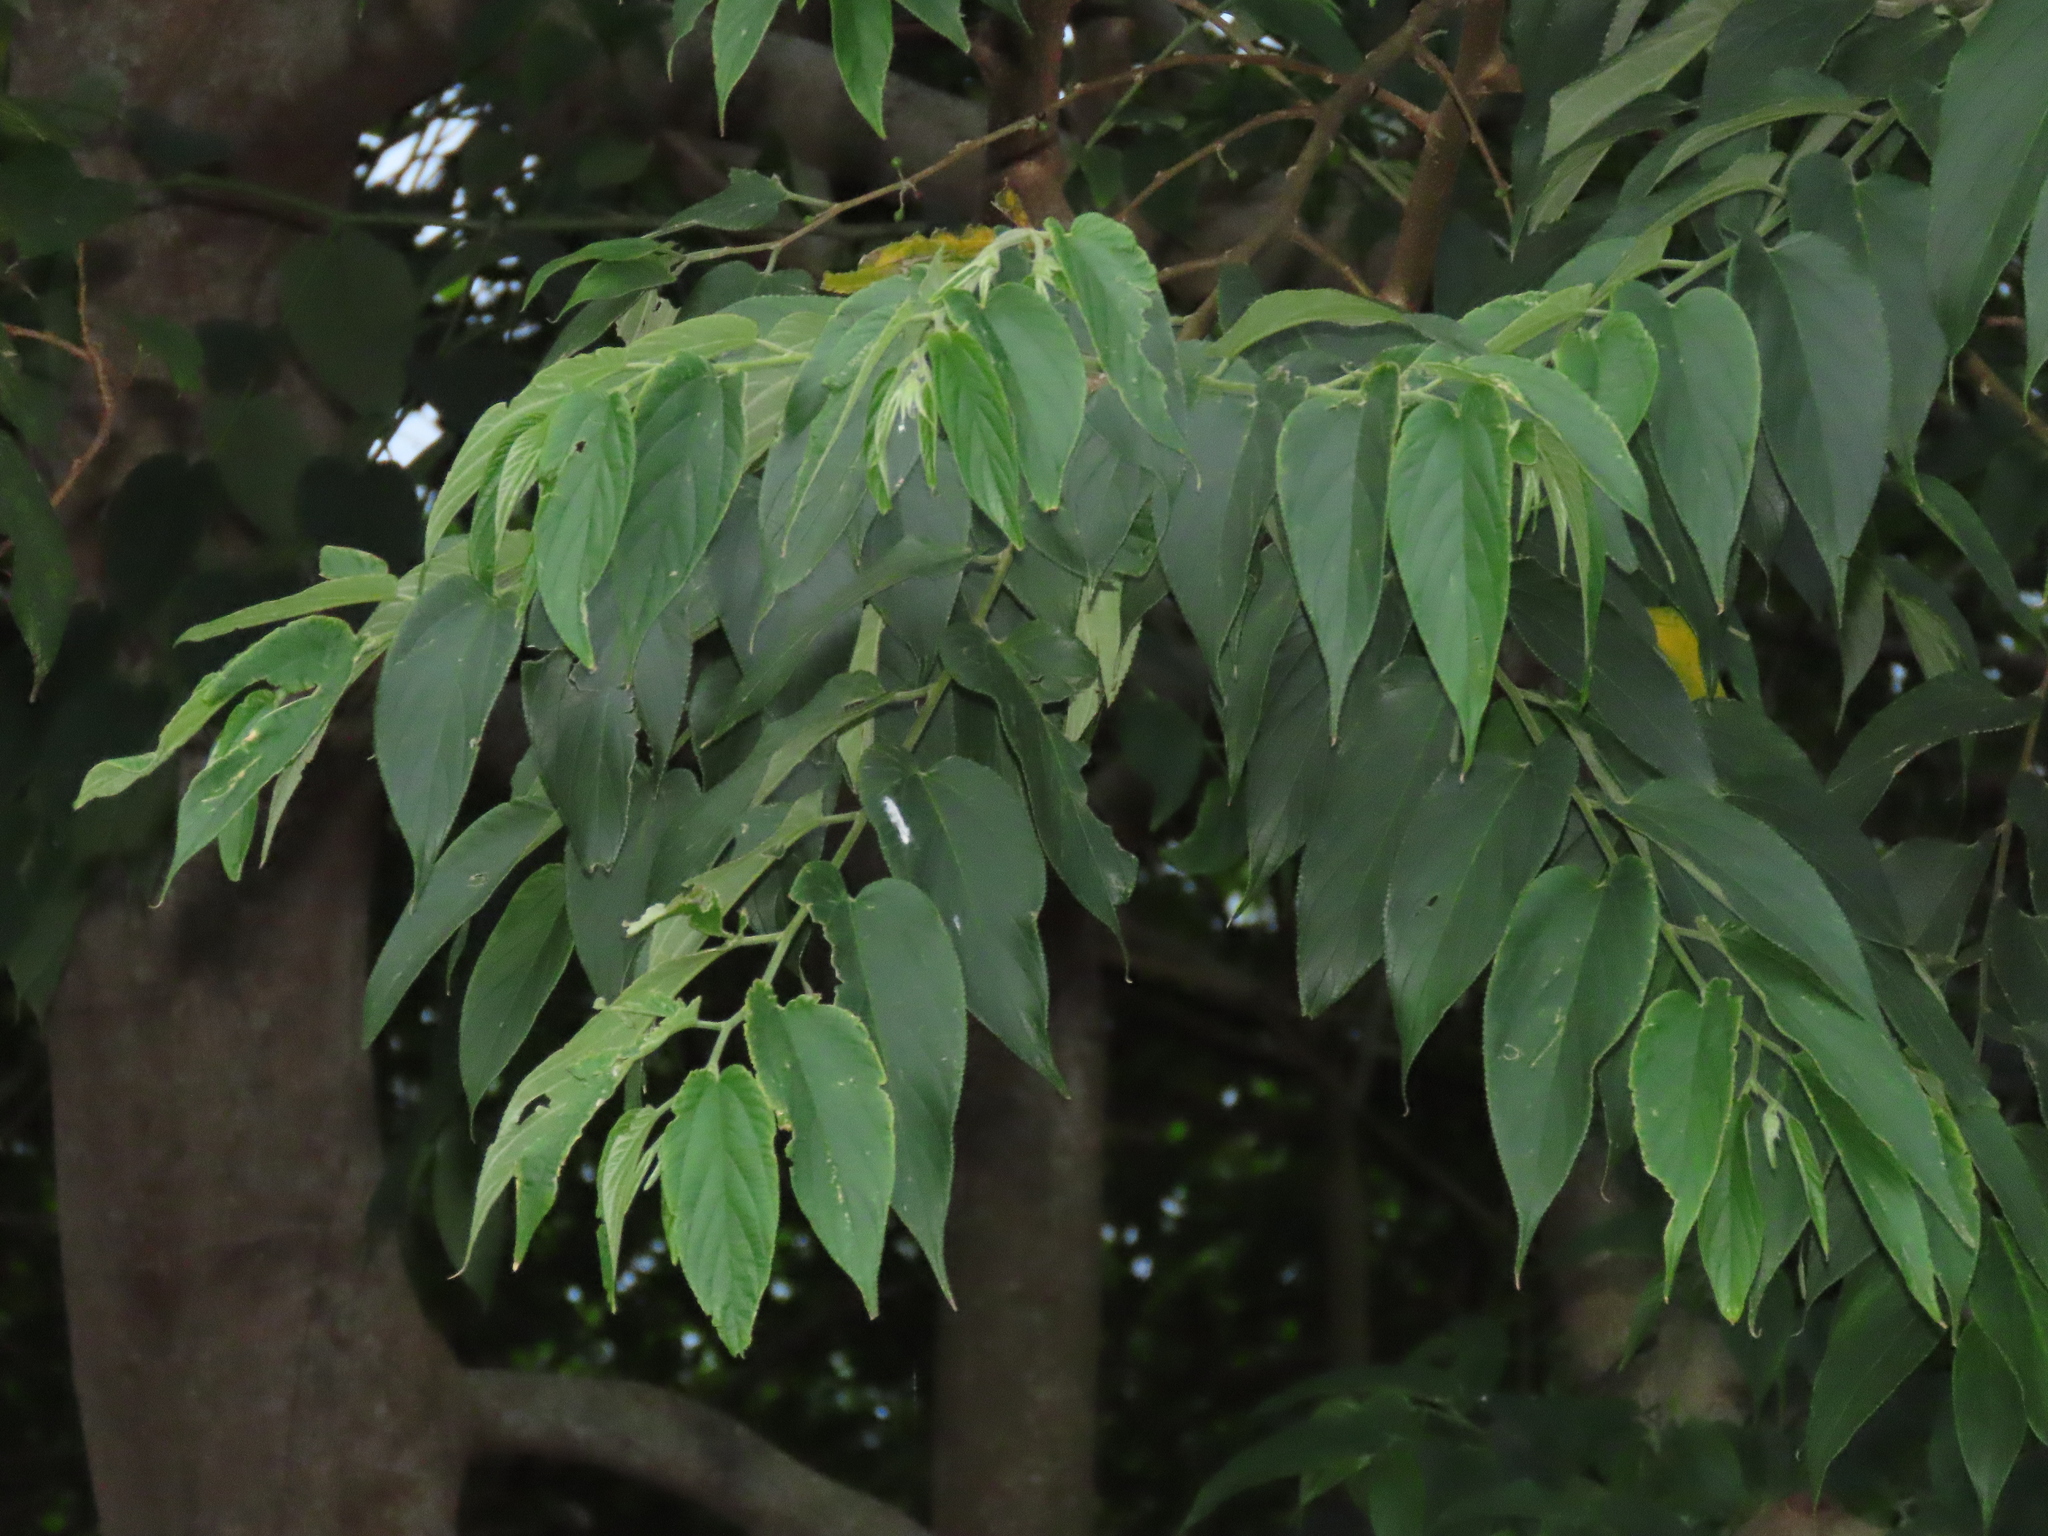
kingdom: Plantae
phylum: Tracheophyta
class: Magnoliopsida
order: Rosales
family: Cannabaceae
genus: Trema
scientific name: Trema orientale
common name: Indian charcoal tree
